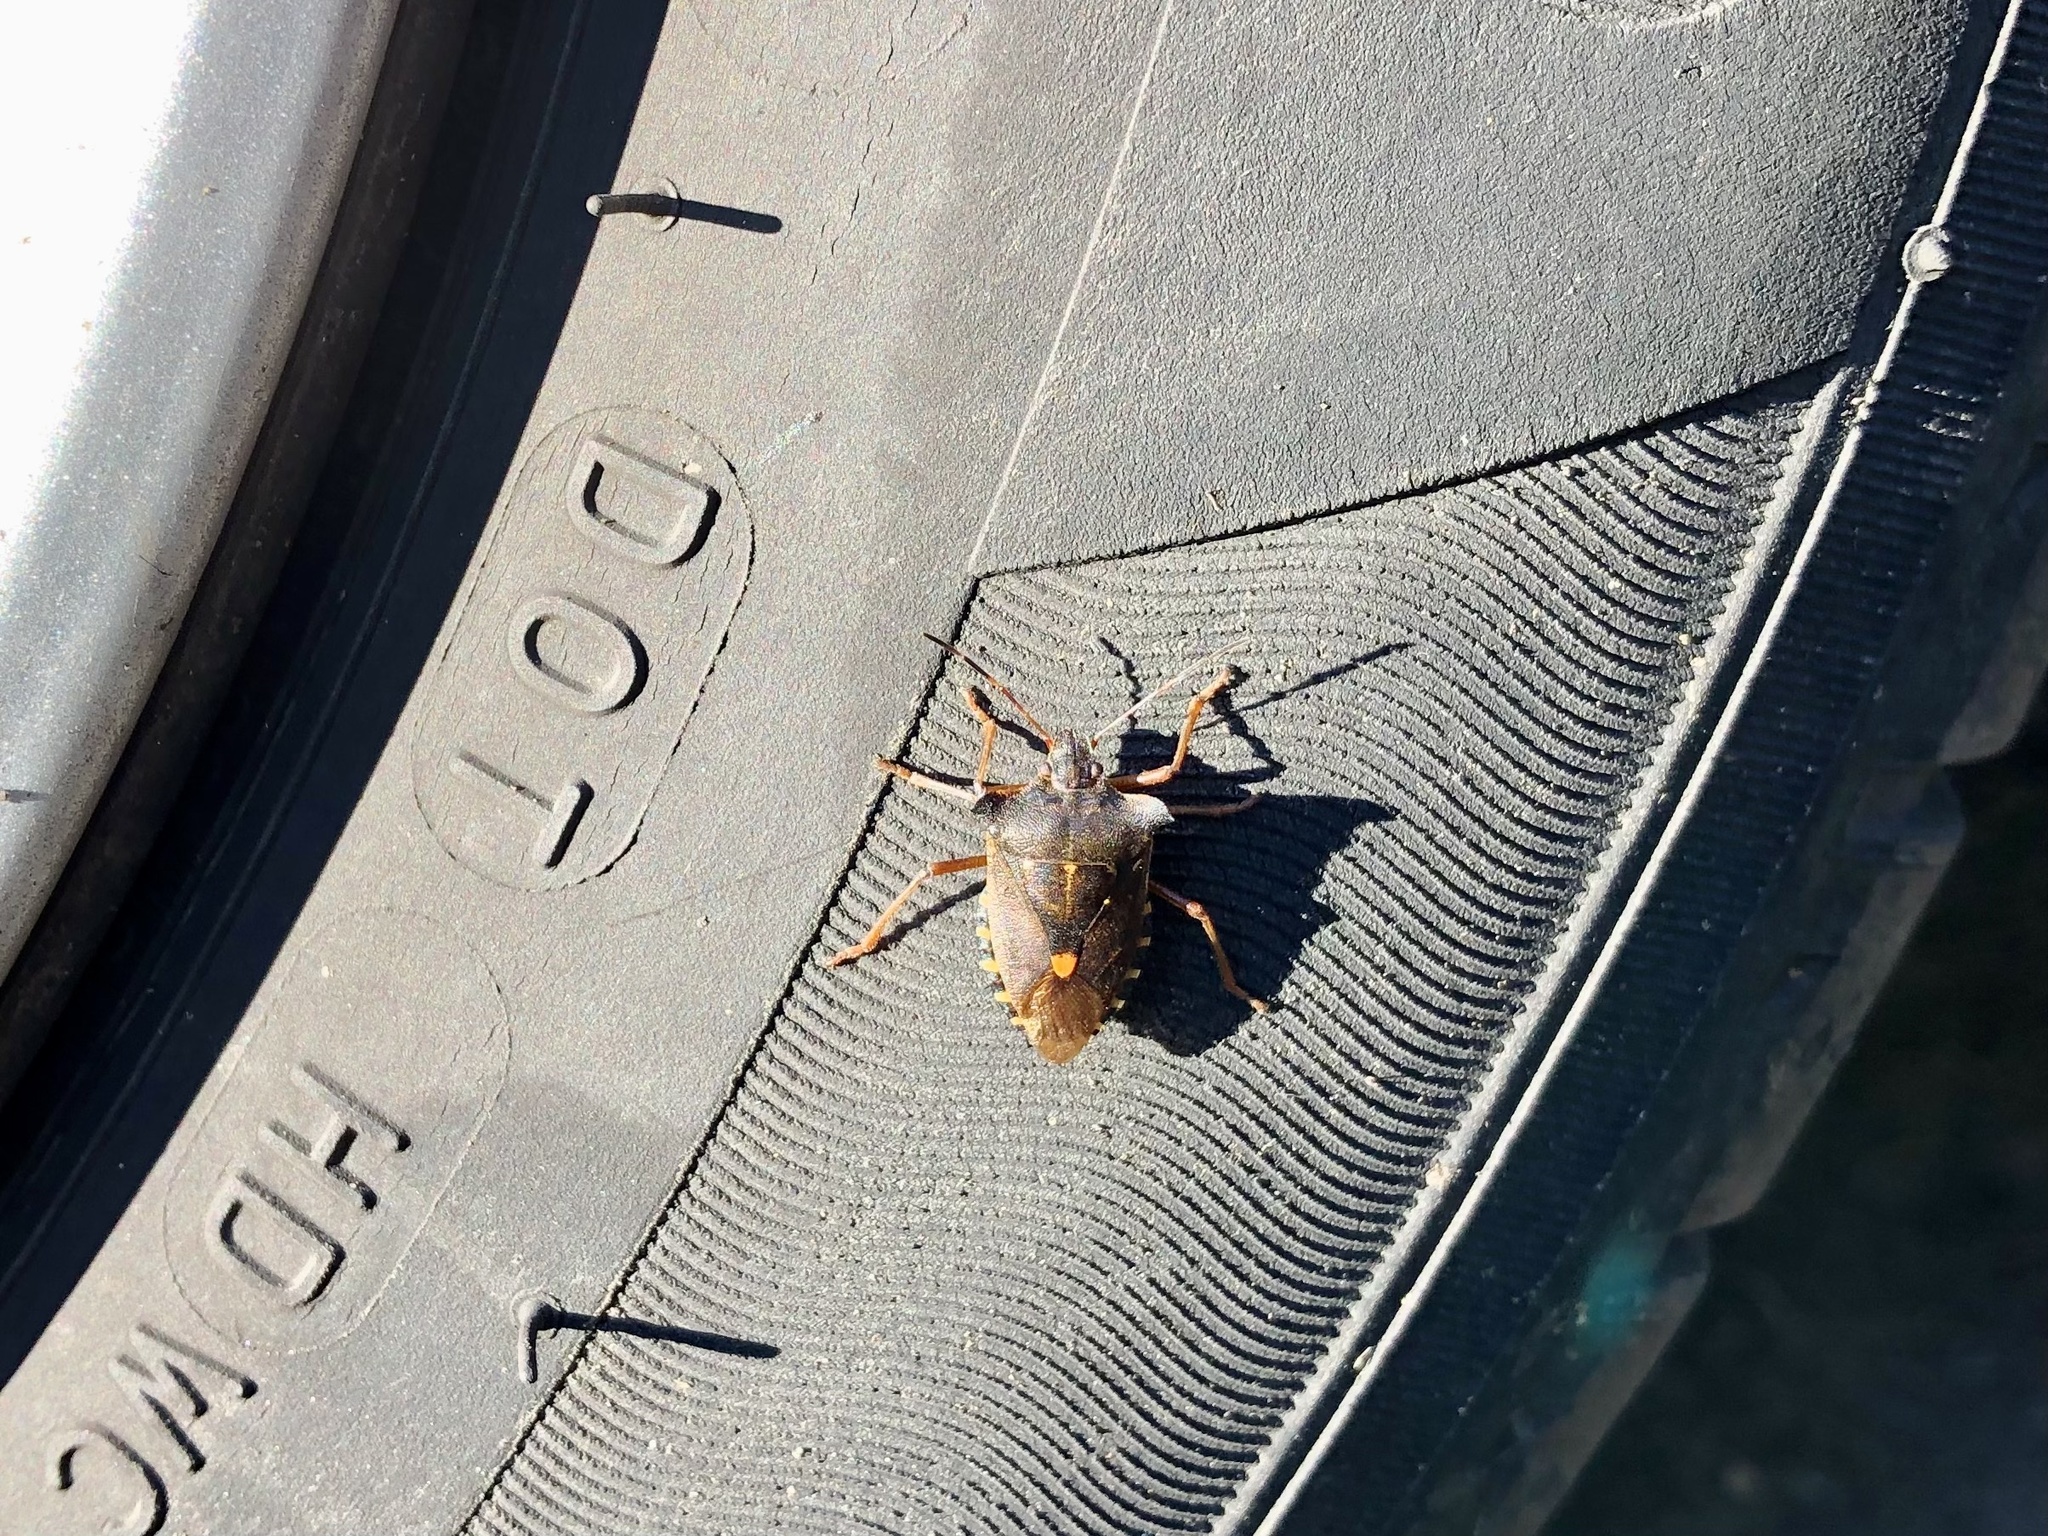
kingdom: Animalia
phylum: Arthropoda
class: Insecta
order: Hemiptera
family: Pentatomidae
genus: Pentatoma
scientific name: Pentatoma rufipes
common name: Forest bug
